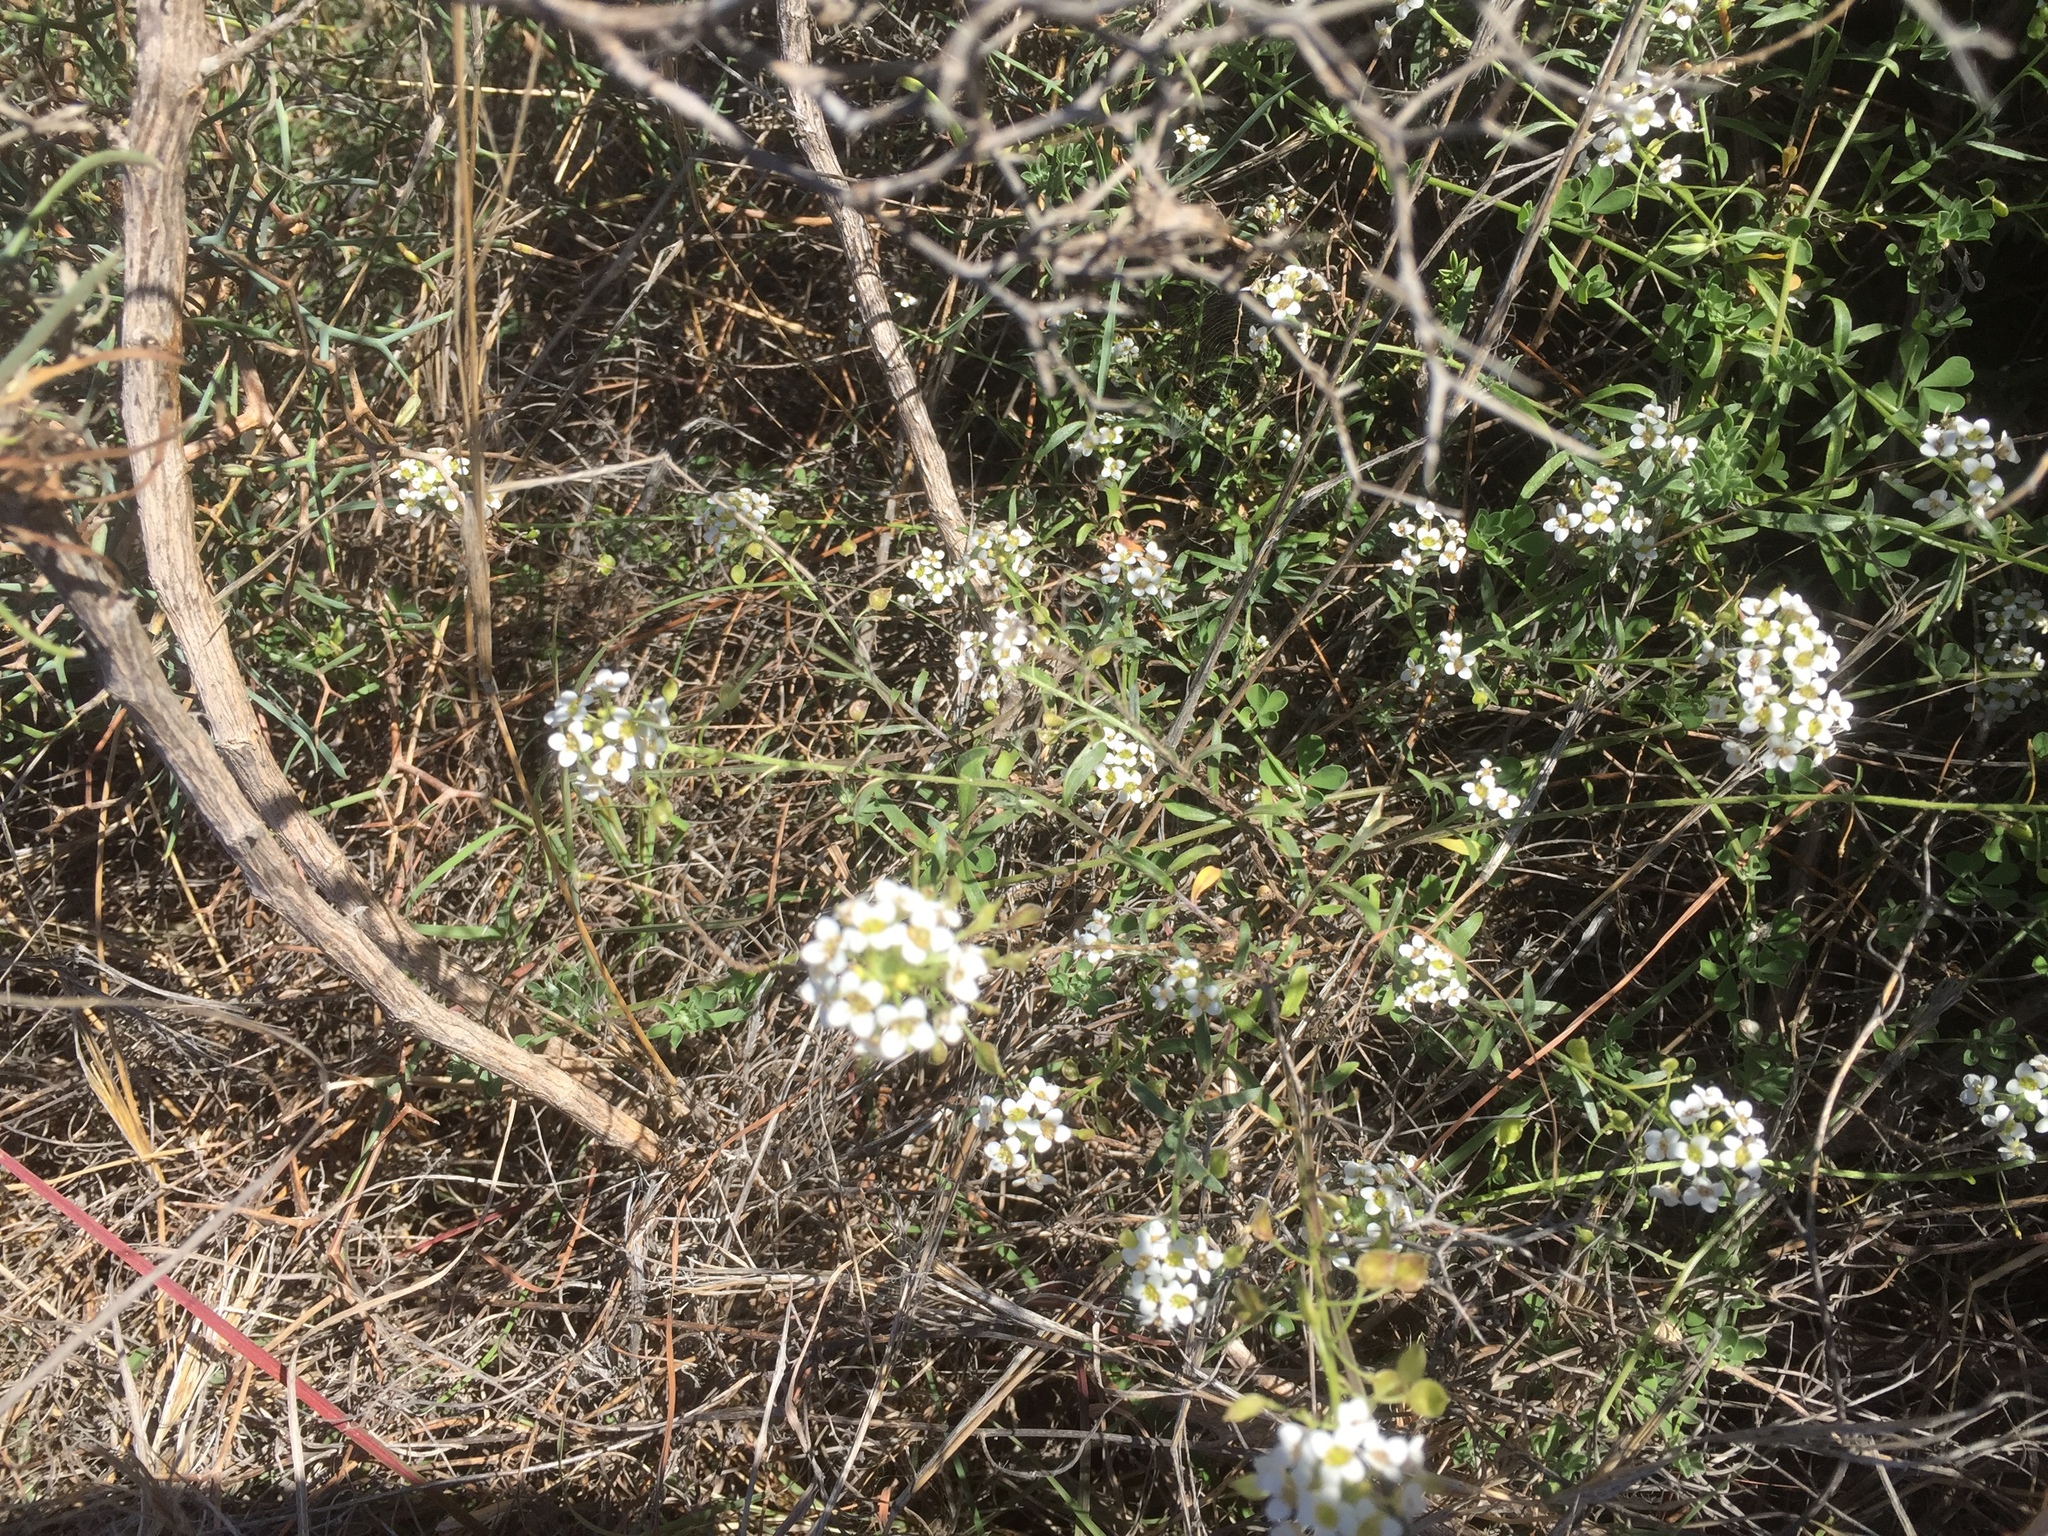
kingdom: Plantae
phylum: Tracheophyta
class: Magnoliopsida
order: Brassicales
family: Brassicaceae
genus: Lobularia
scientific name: Lobularia maritima
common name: Sweet alison
